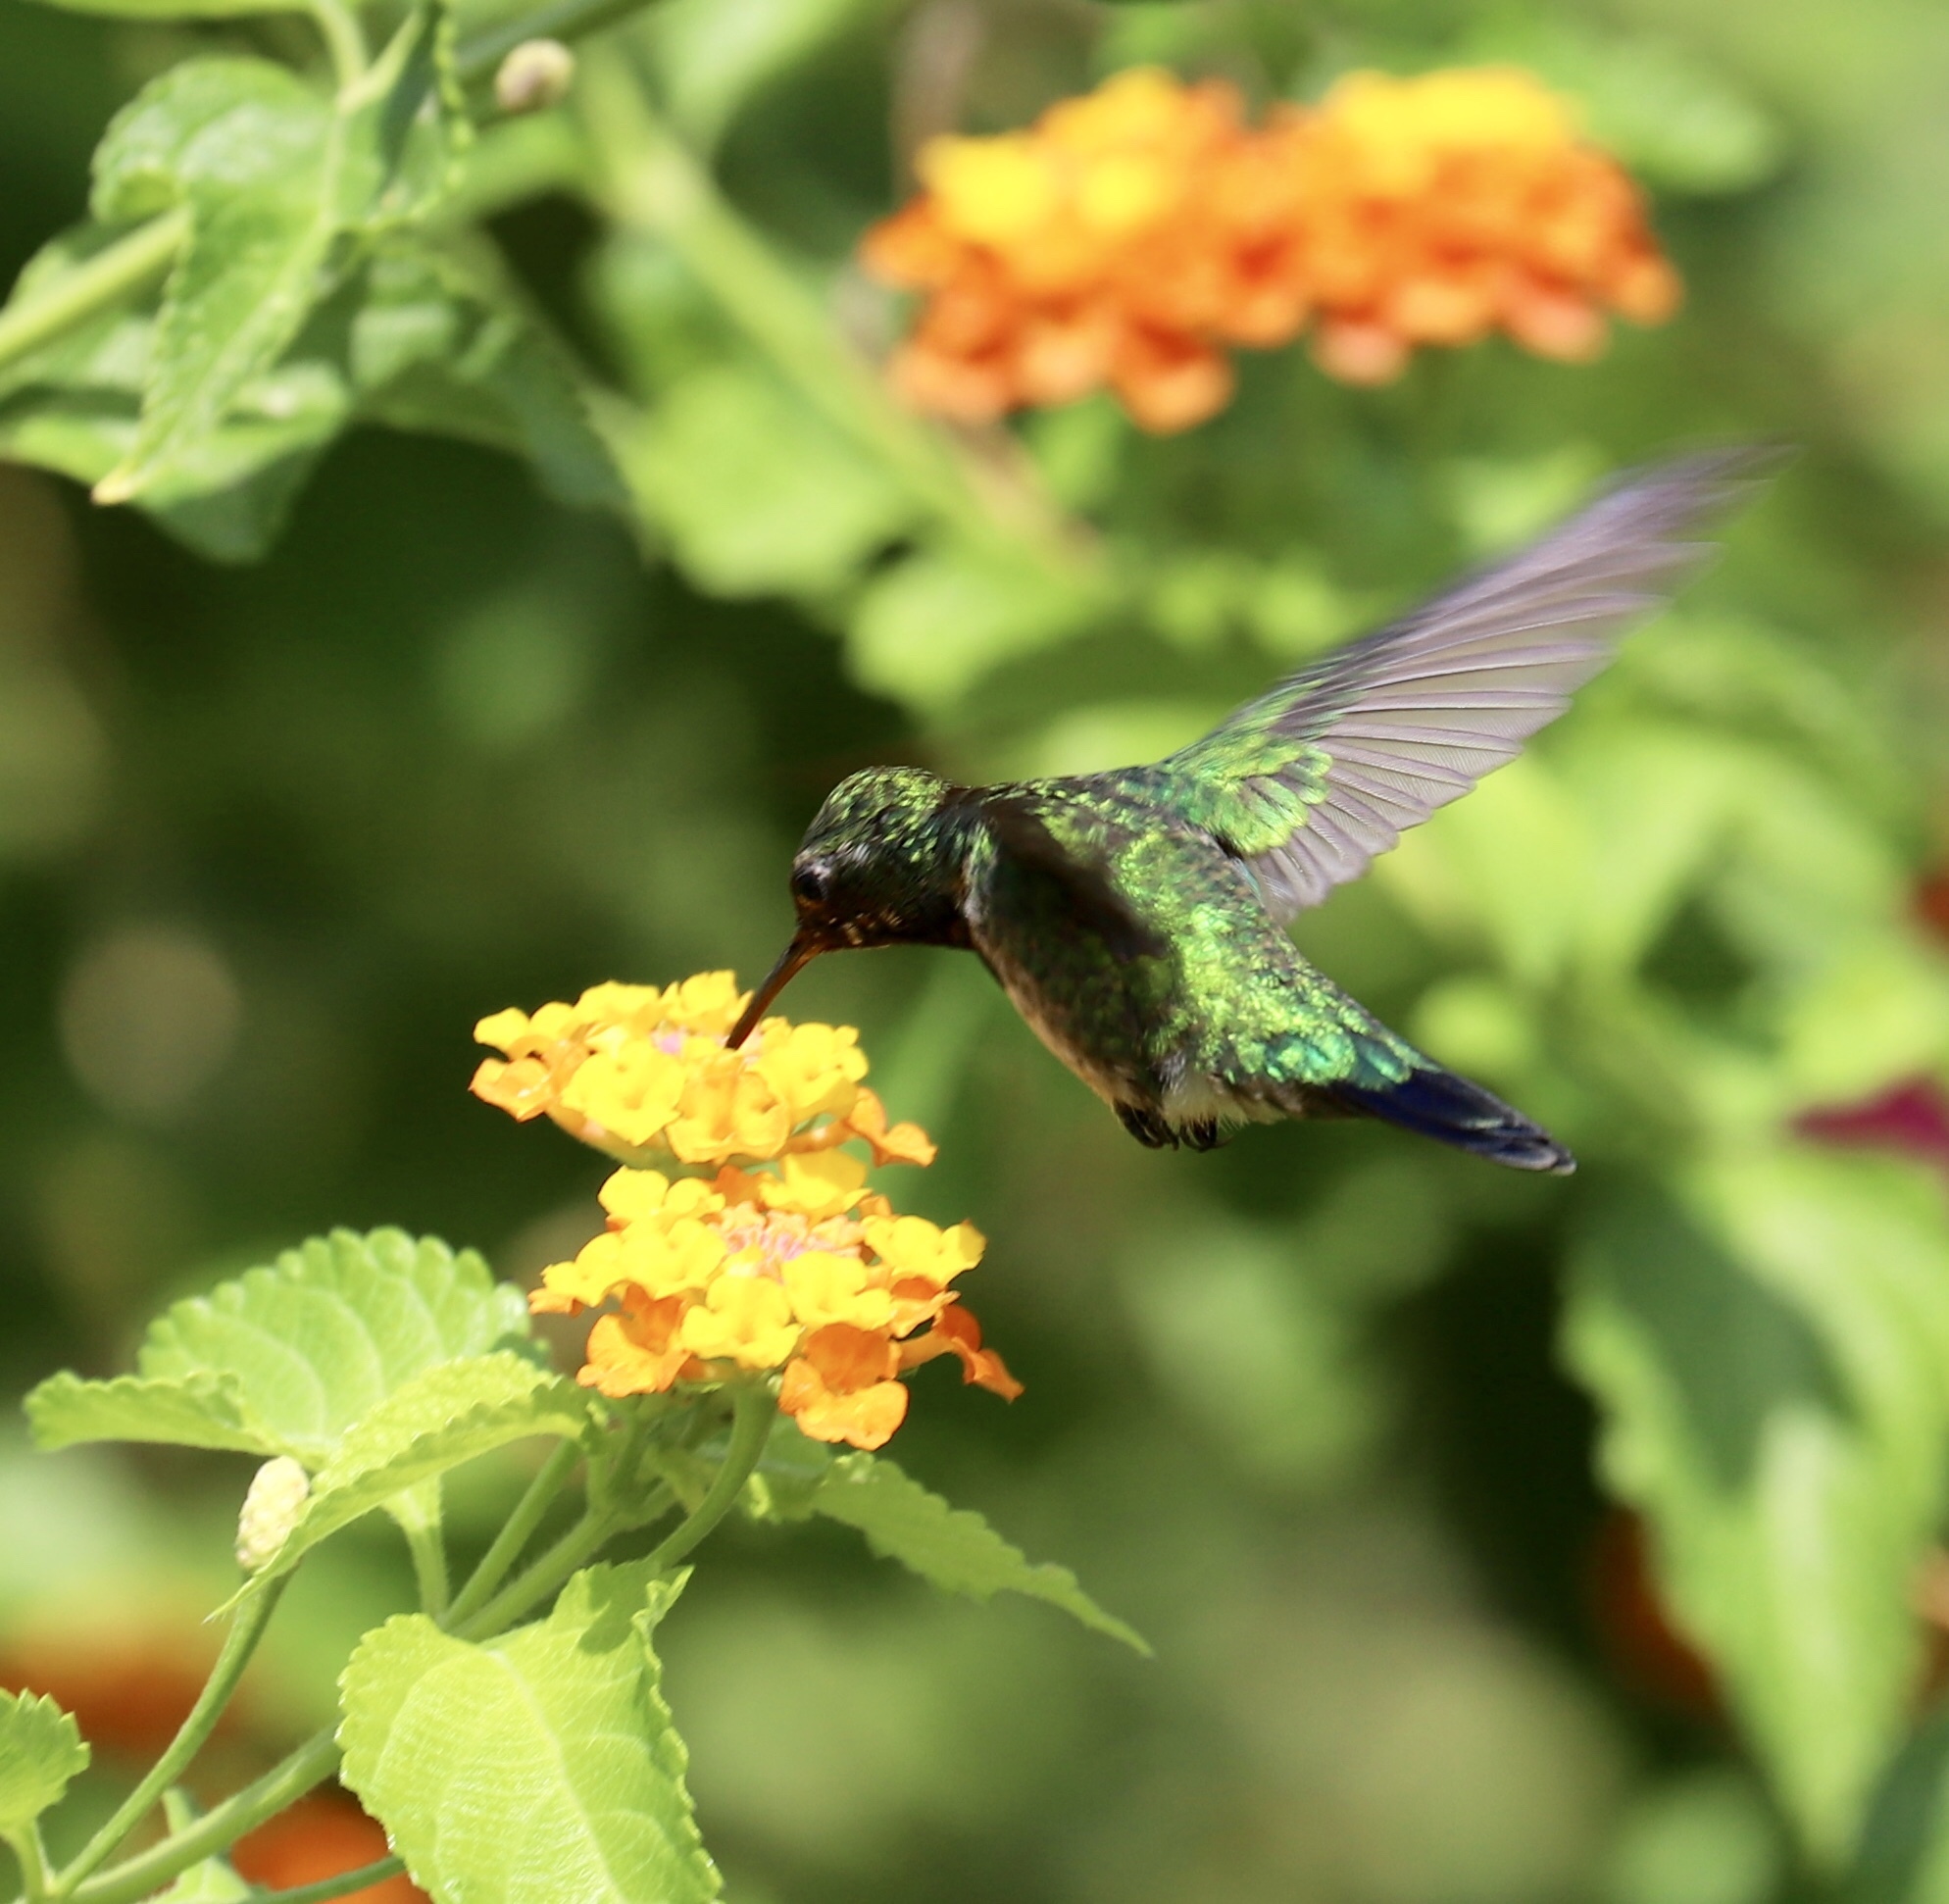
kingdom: Animalia
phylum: Chordata
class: Aves
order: Apodiformes
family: Trochilidae
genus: Chlorostilbon
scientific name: Chlorostilbon assimilis
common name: Garden emerald
